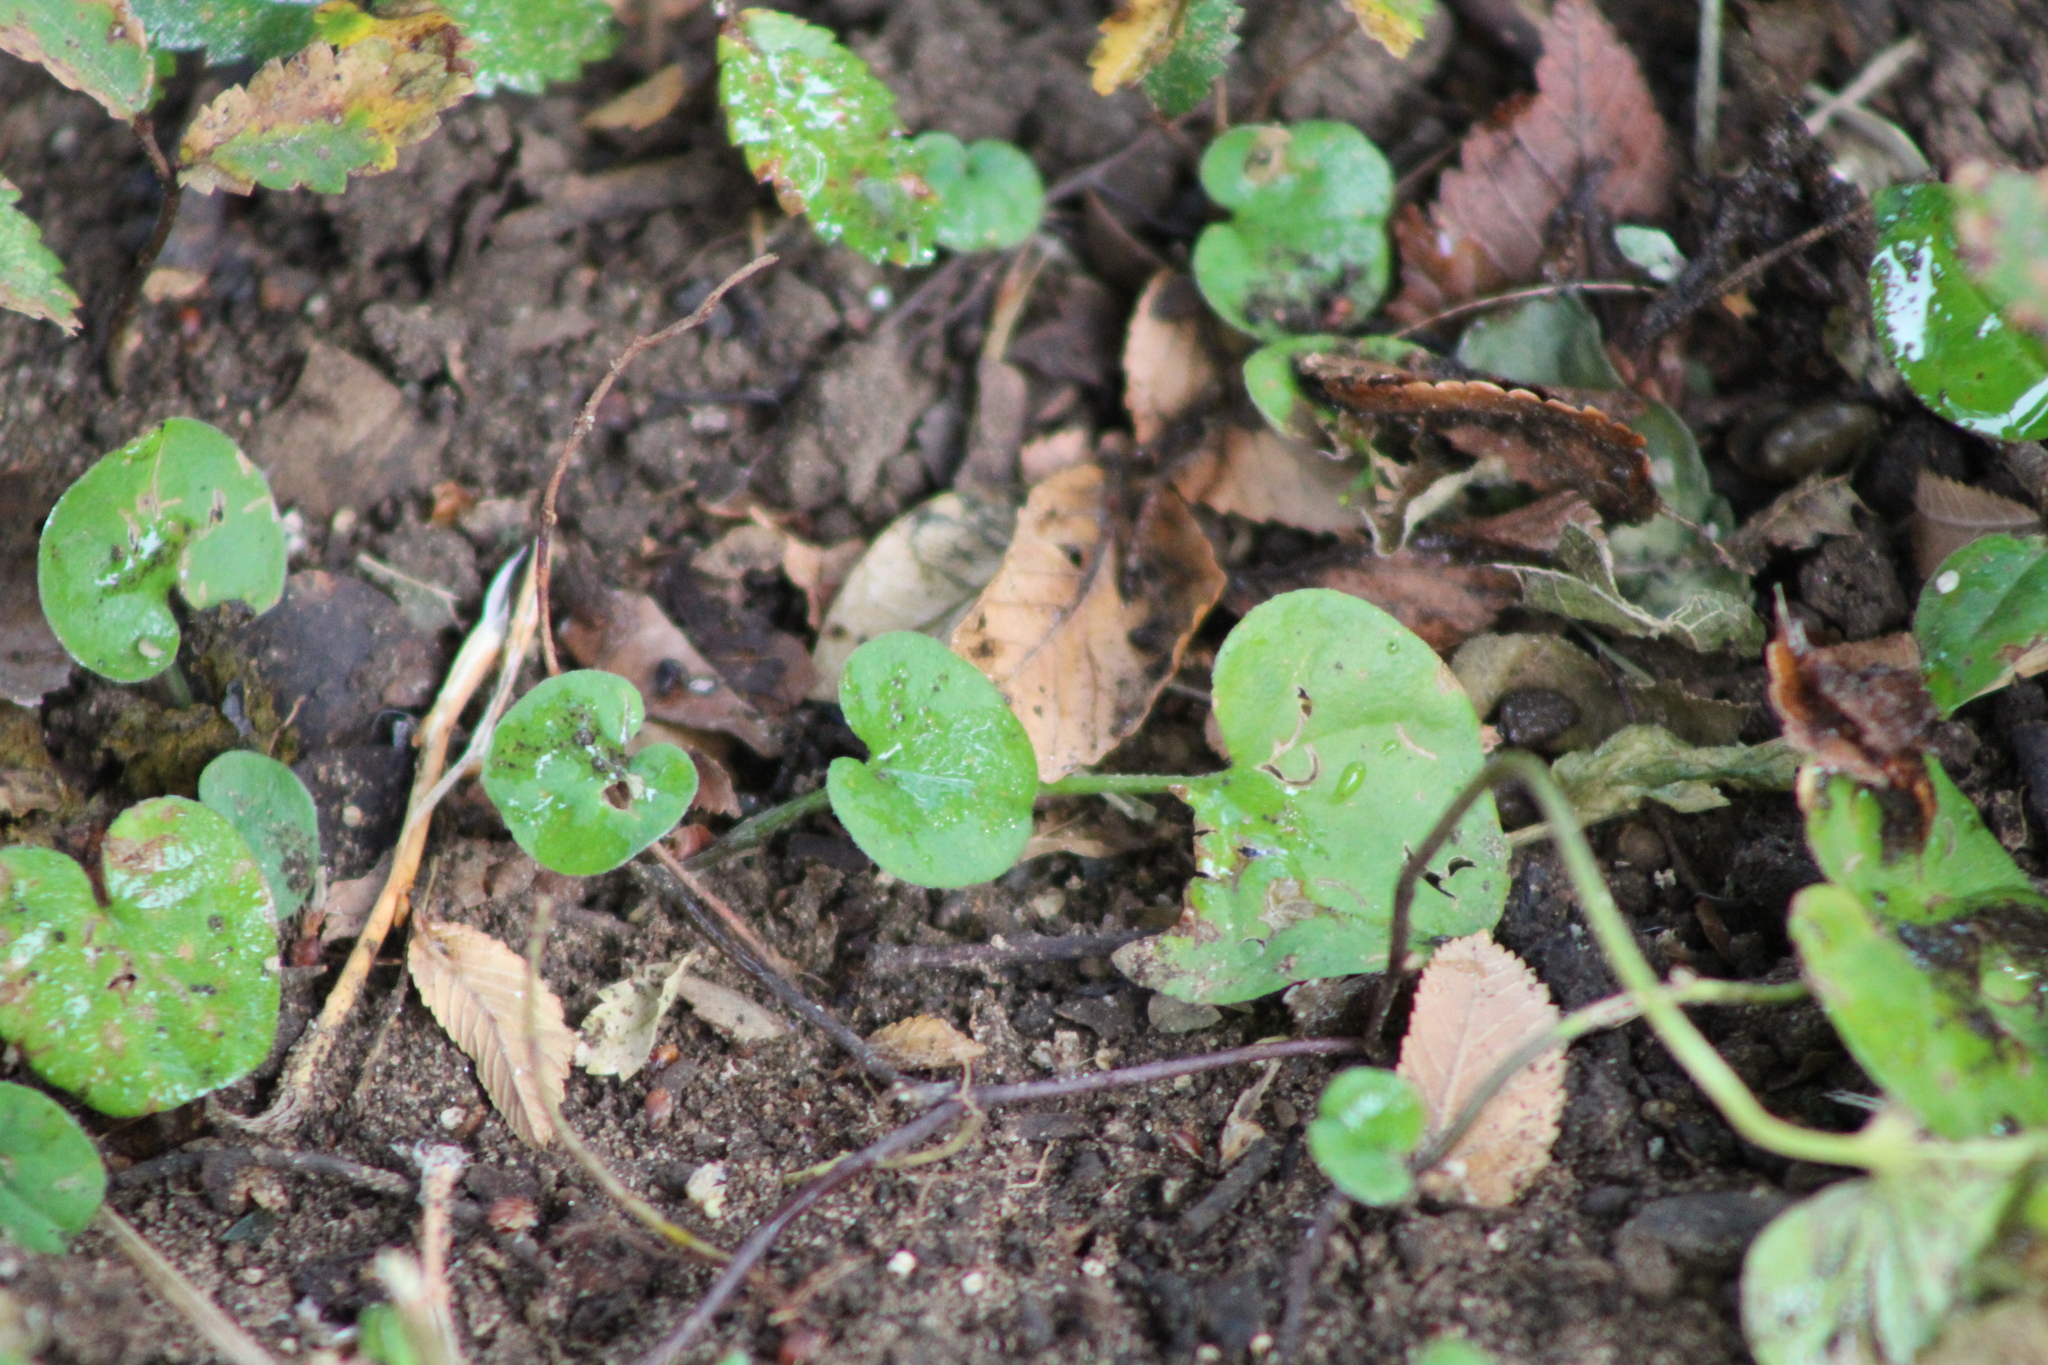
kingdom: Plantae
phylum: Tracheophyta
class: Magnoliopsida
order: Solanales
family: Convolvulaceae
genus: Dichondra
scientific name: Dichondra carolinensis
